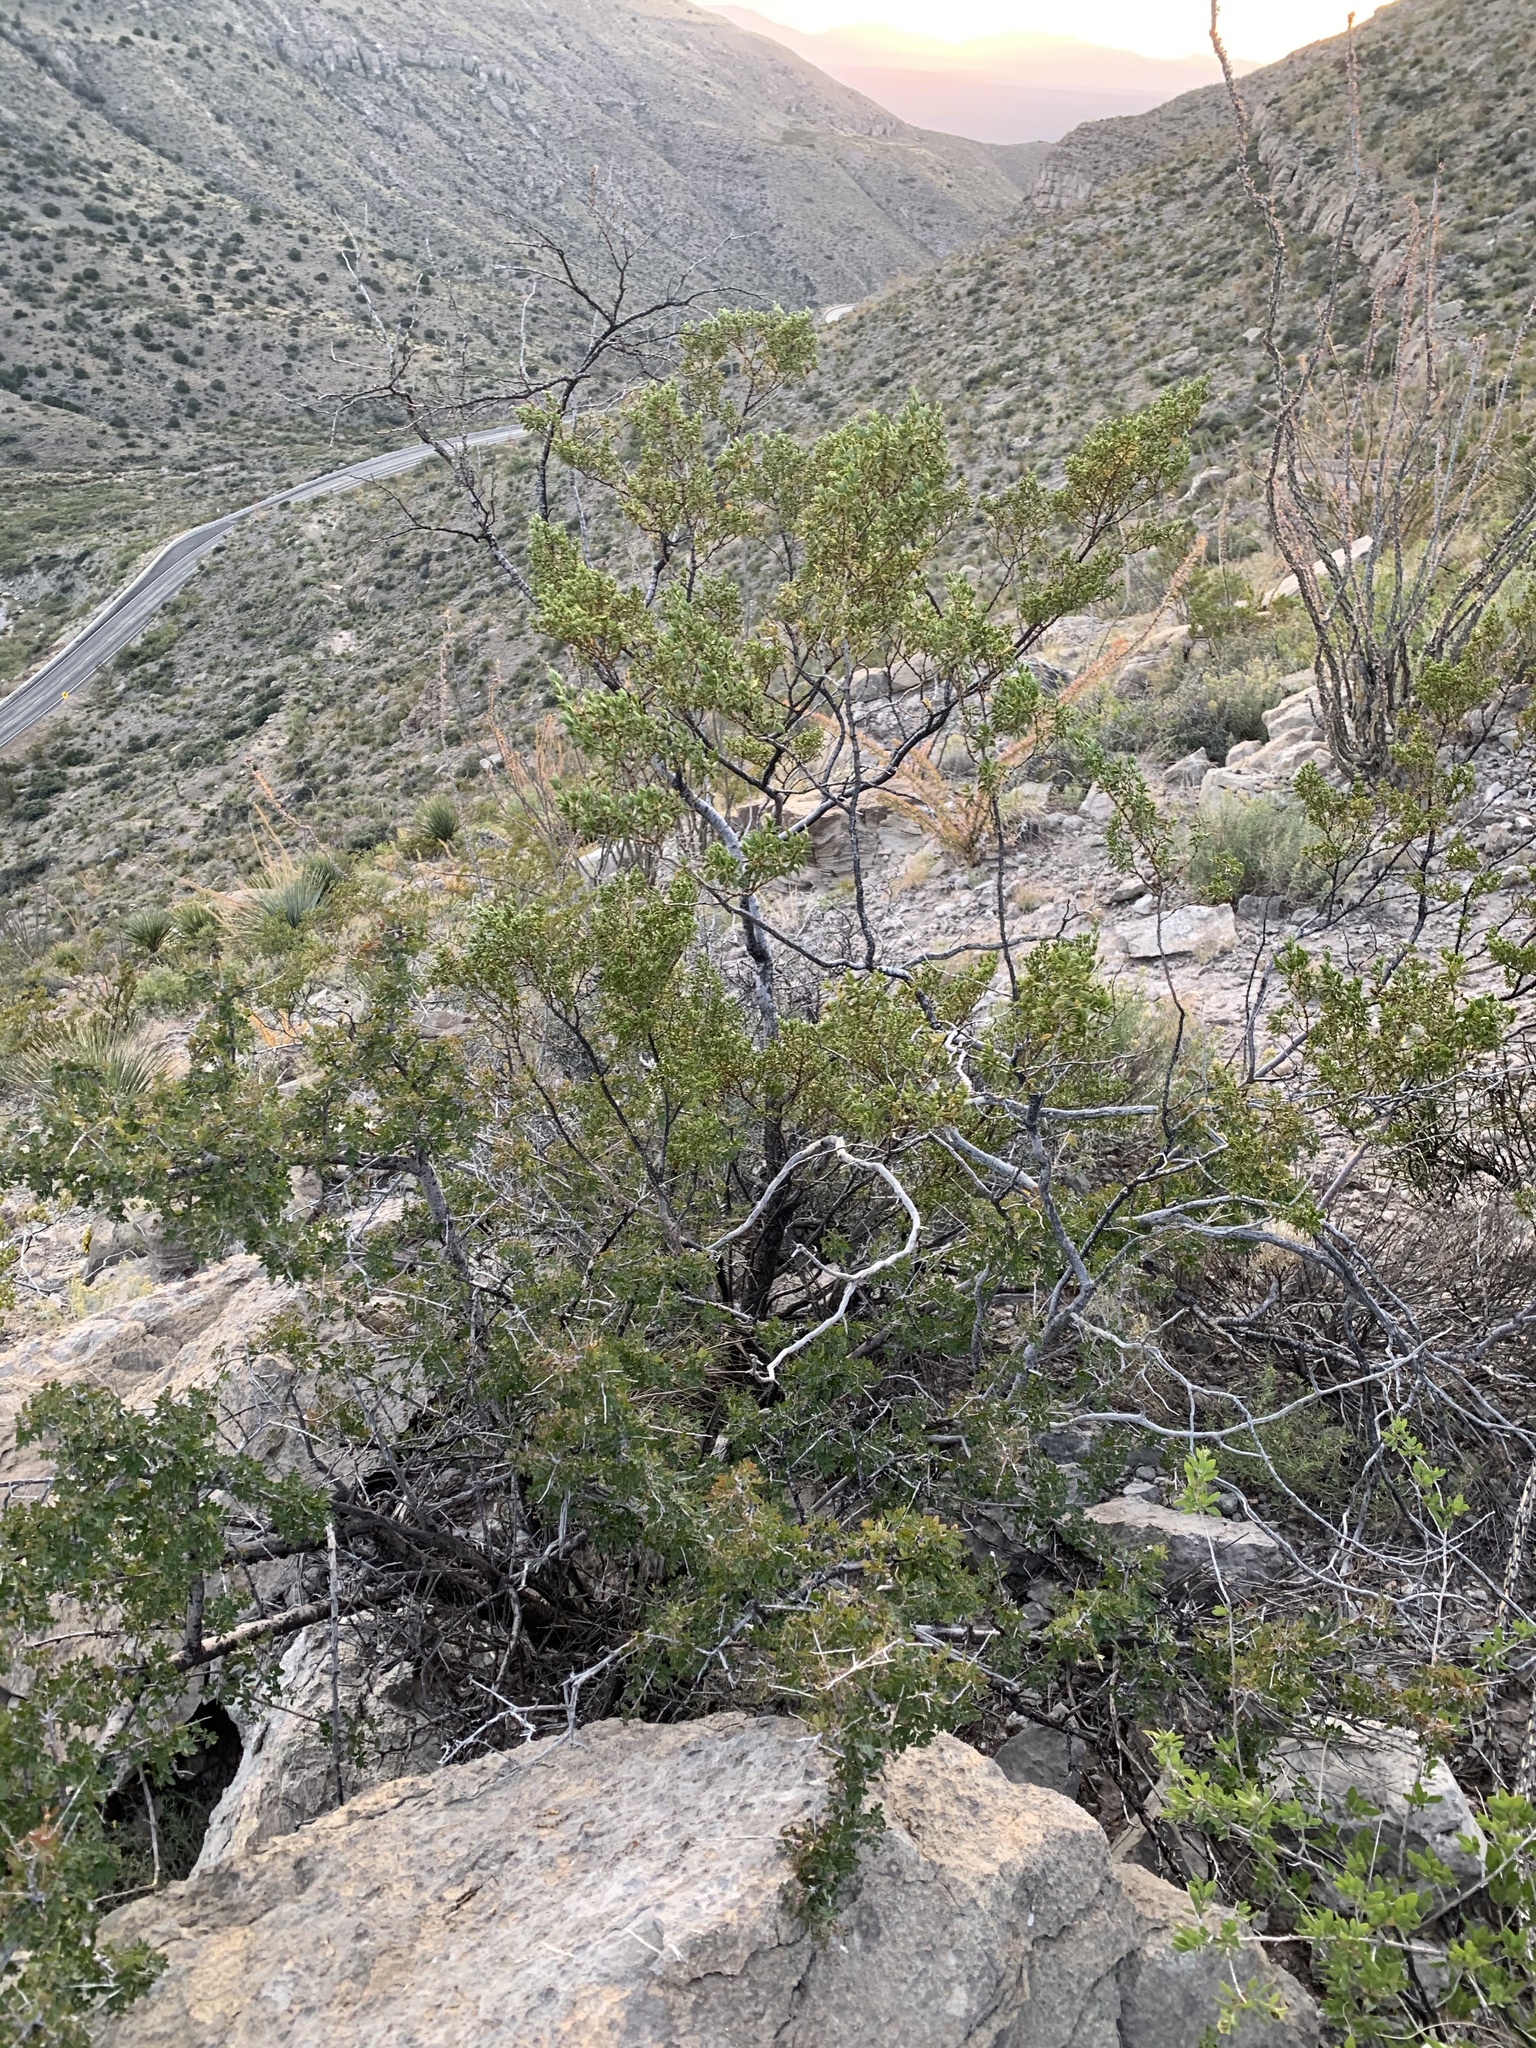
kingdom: Plantae
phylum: Tracheophyta
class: Magnoliopsida
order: Zygophyllales
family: Zygophyllaceae
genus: Larrea
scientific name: Larrea tridentata
